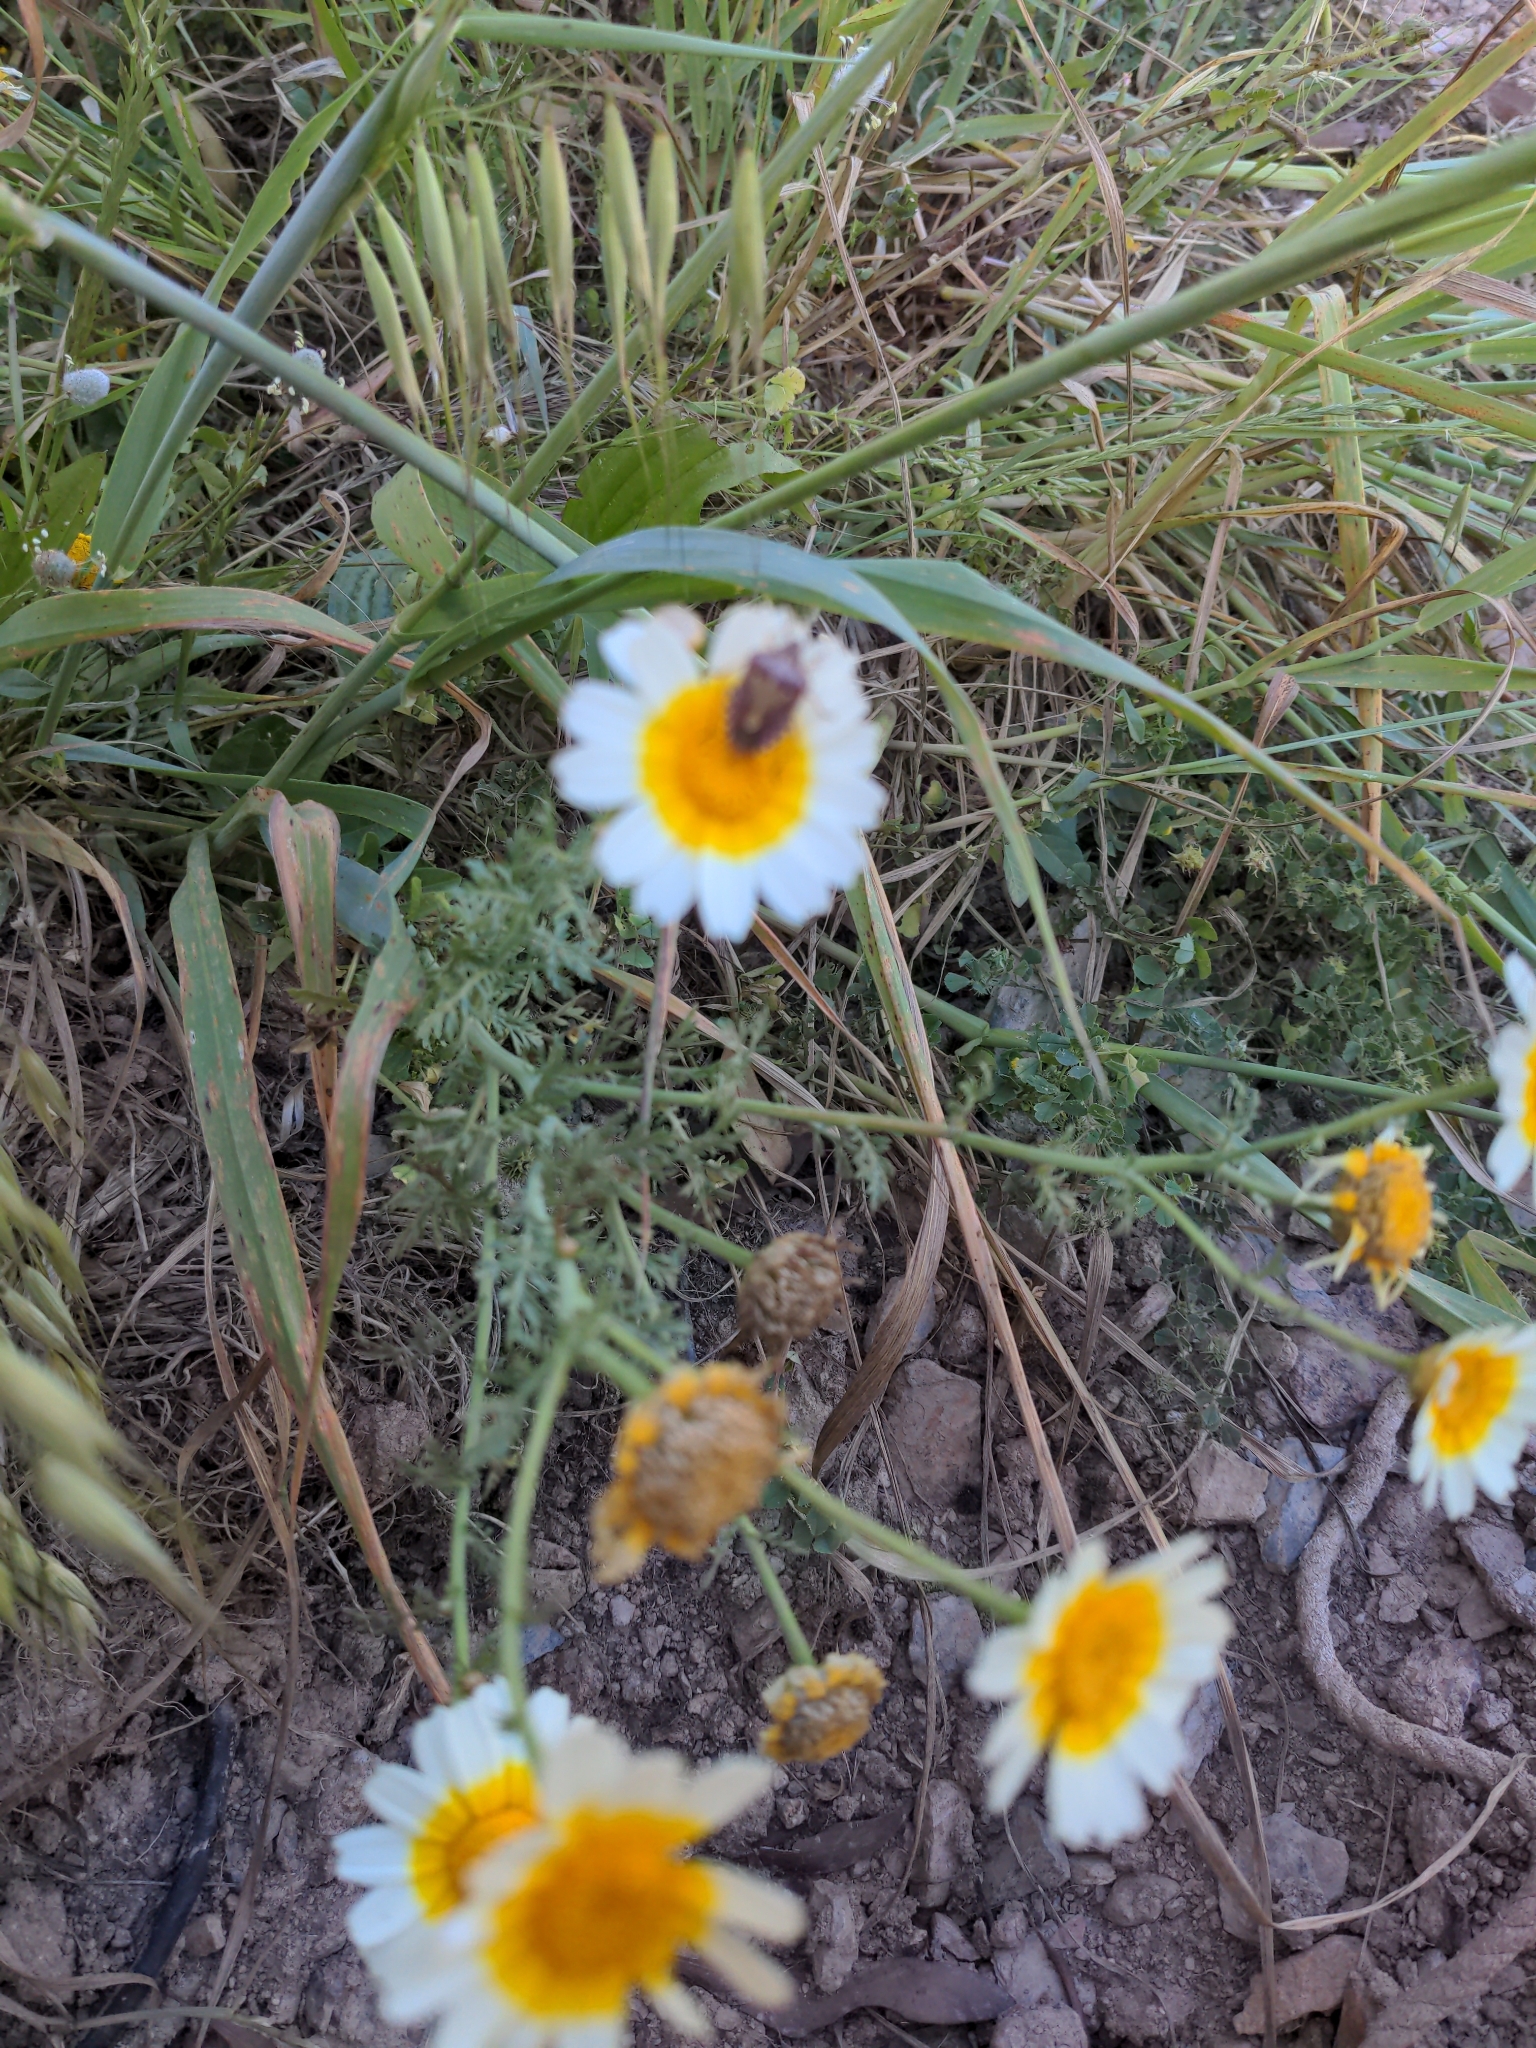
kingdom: Plantae
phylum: Tracheophyta
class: Magnoliopsida
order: Asterales
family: Asteraceae
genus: Glebionis
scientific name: Glebionis coronaria
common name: Crowndaisy
